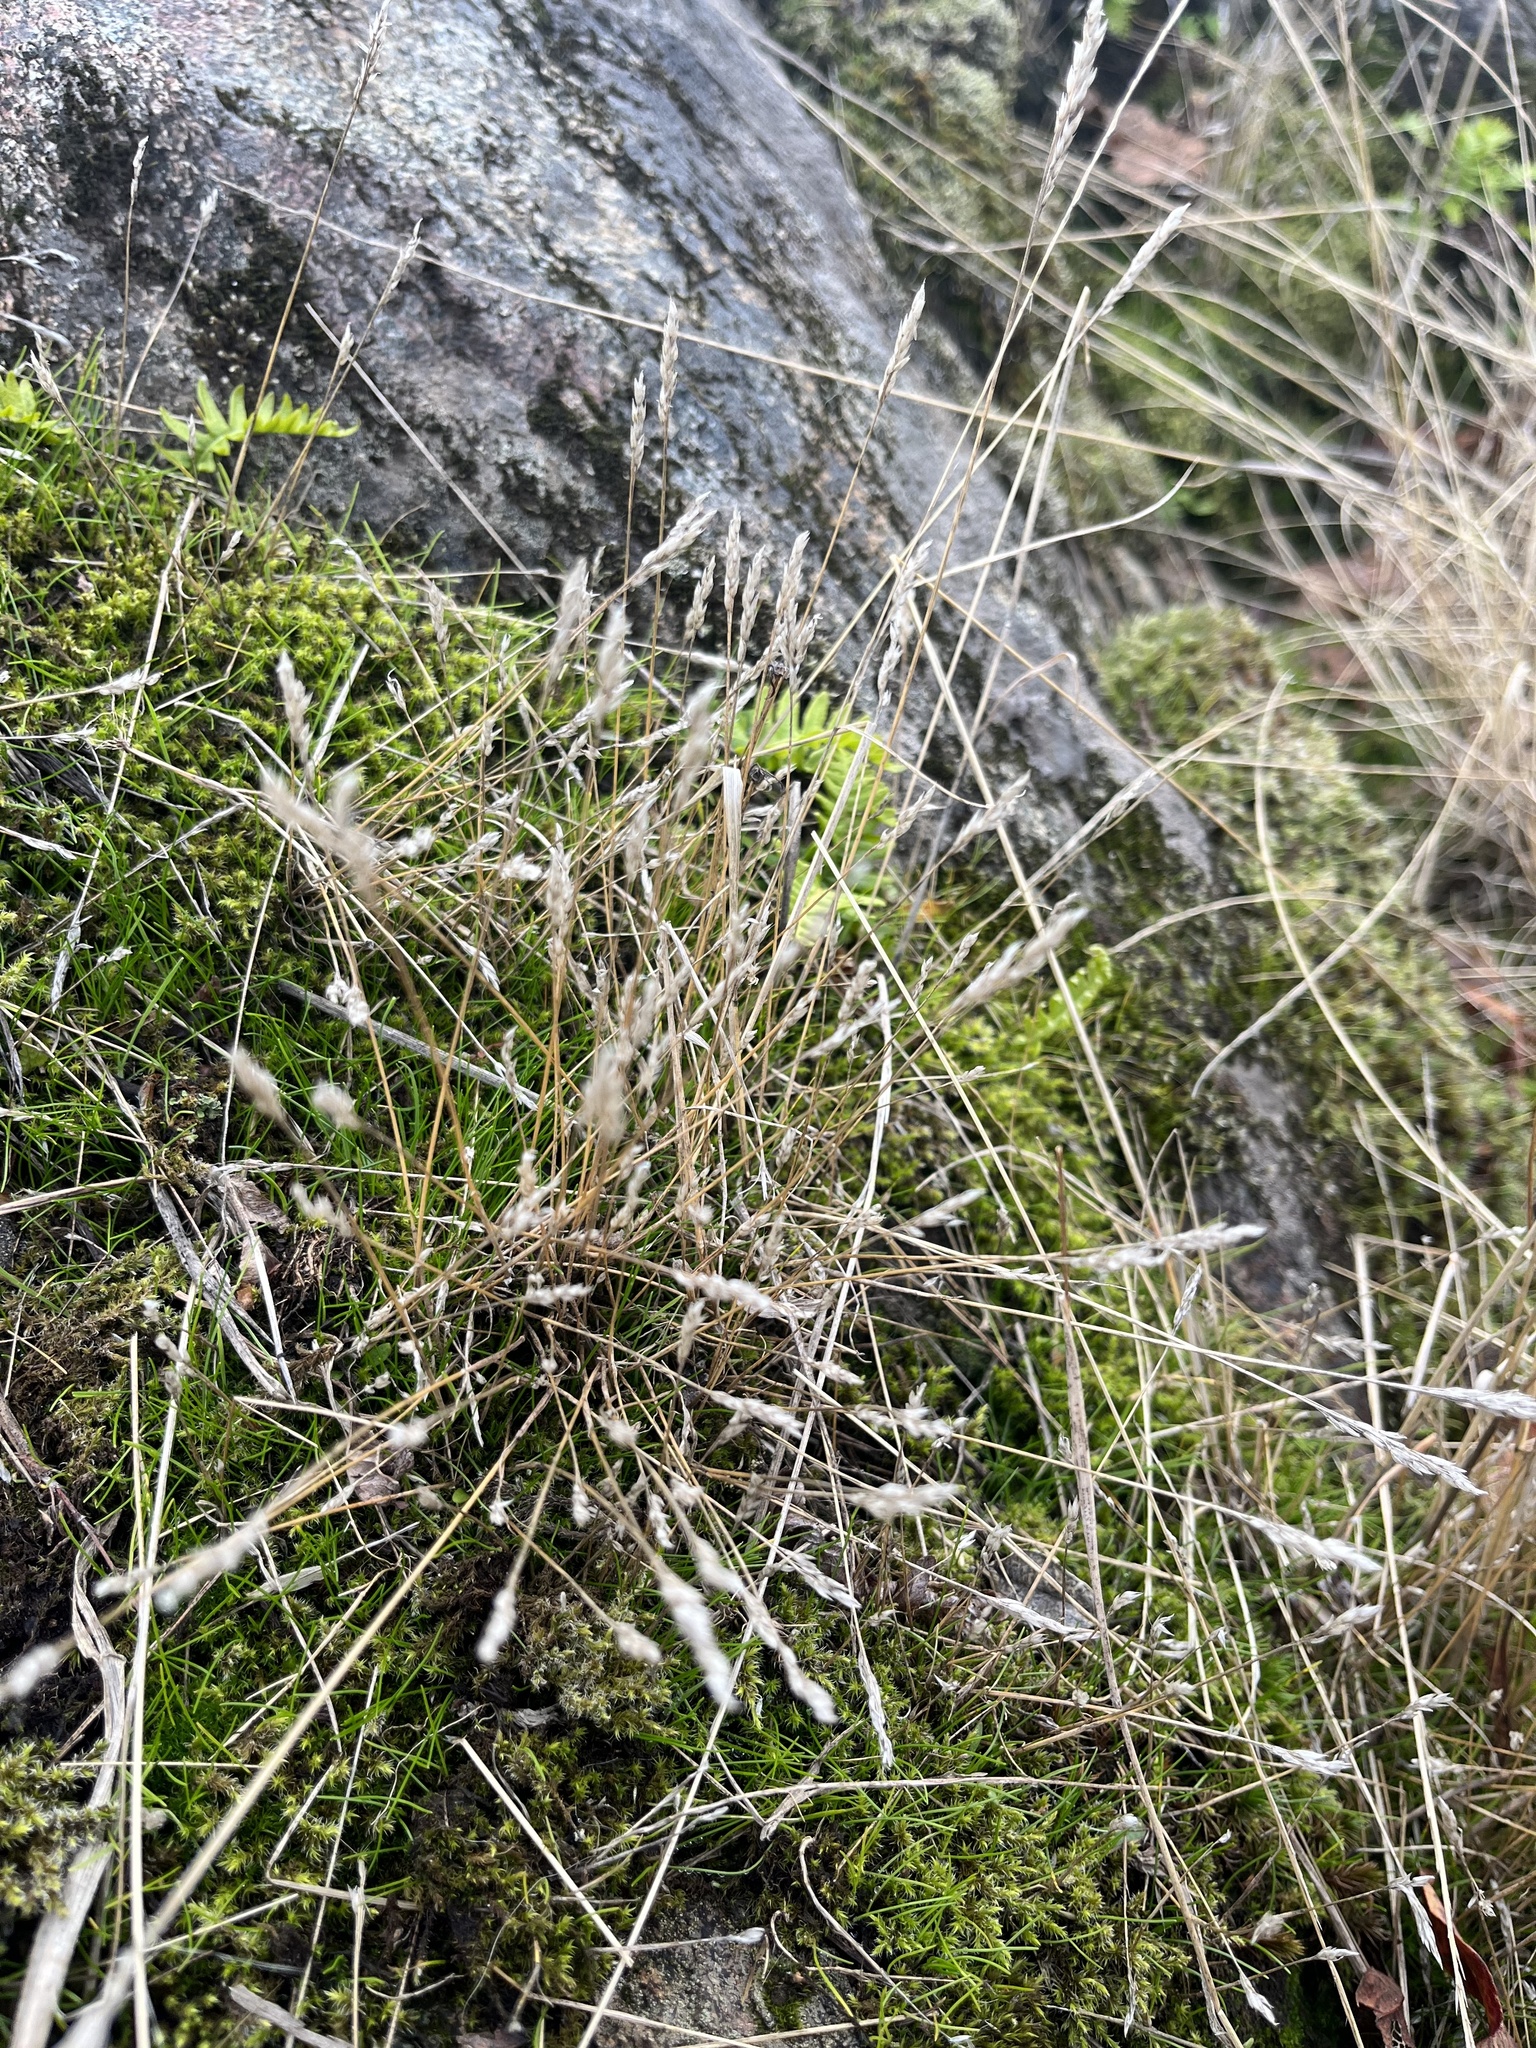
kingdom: Plantae
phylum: Tracheophyta
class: Liliopsida
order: Poales
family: Poaceae
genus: Aira
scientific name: Aira praecox
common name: Early hair-grass
